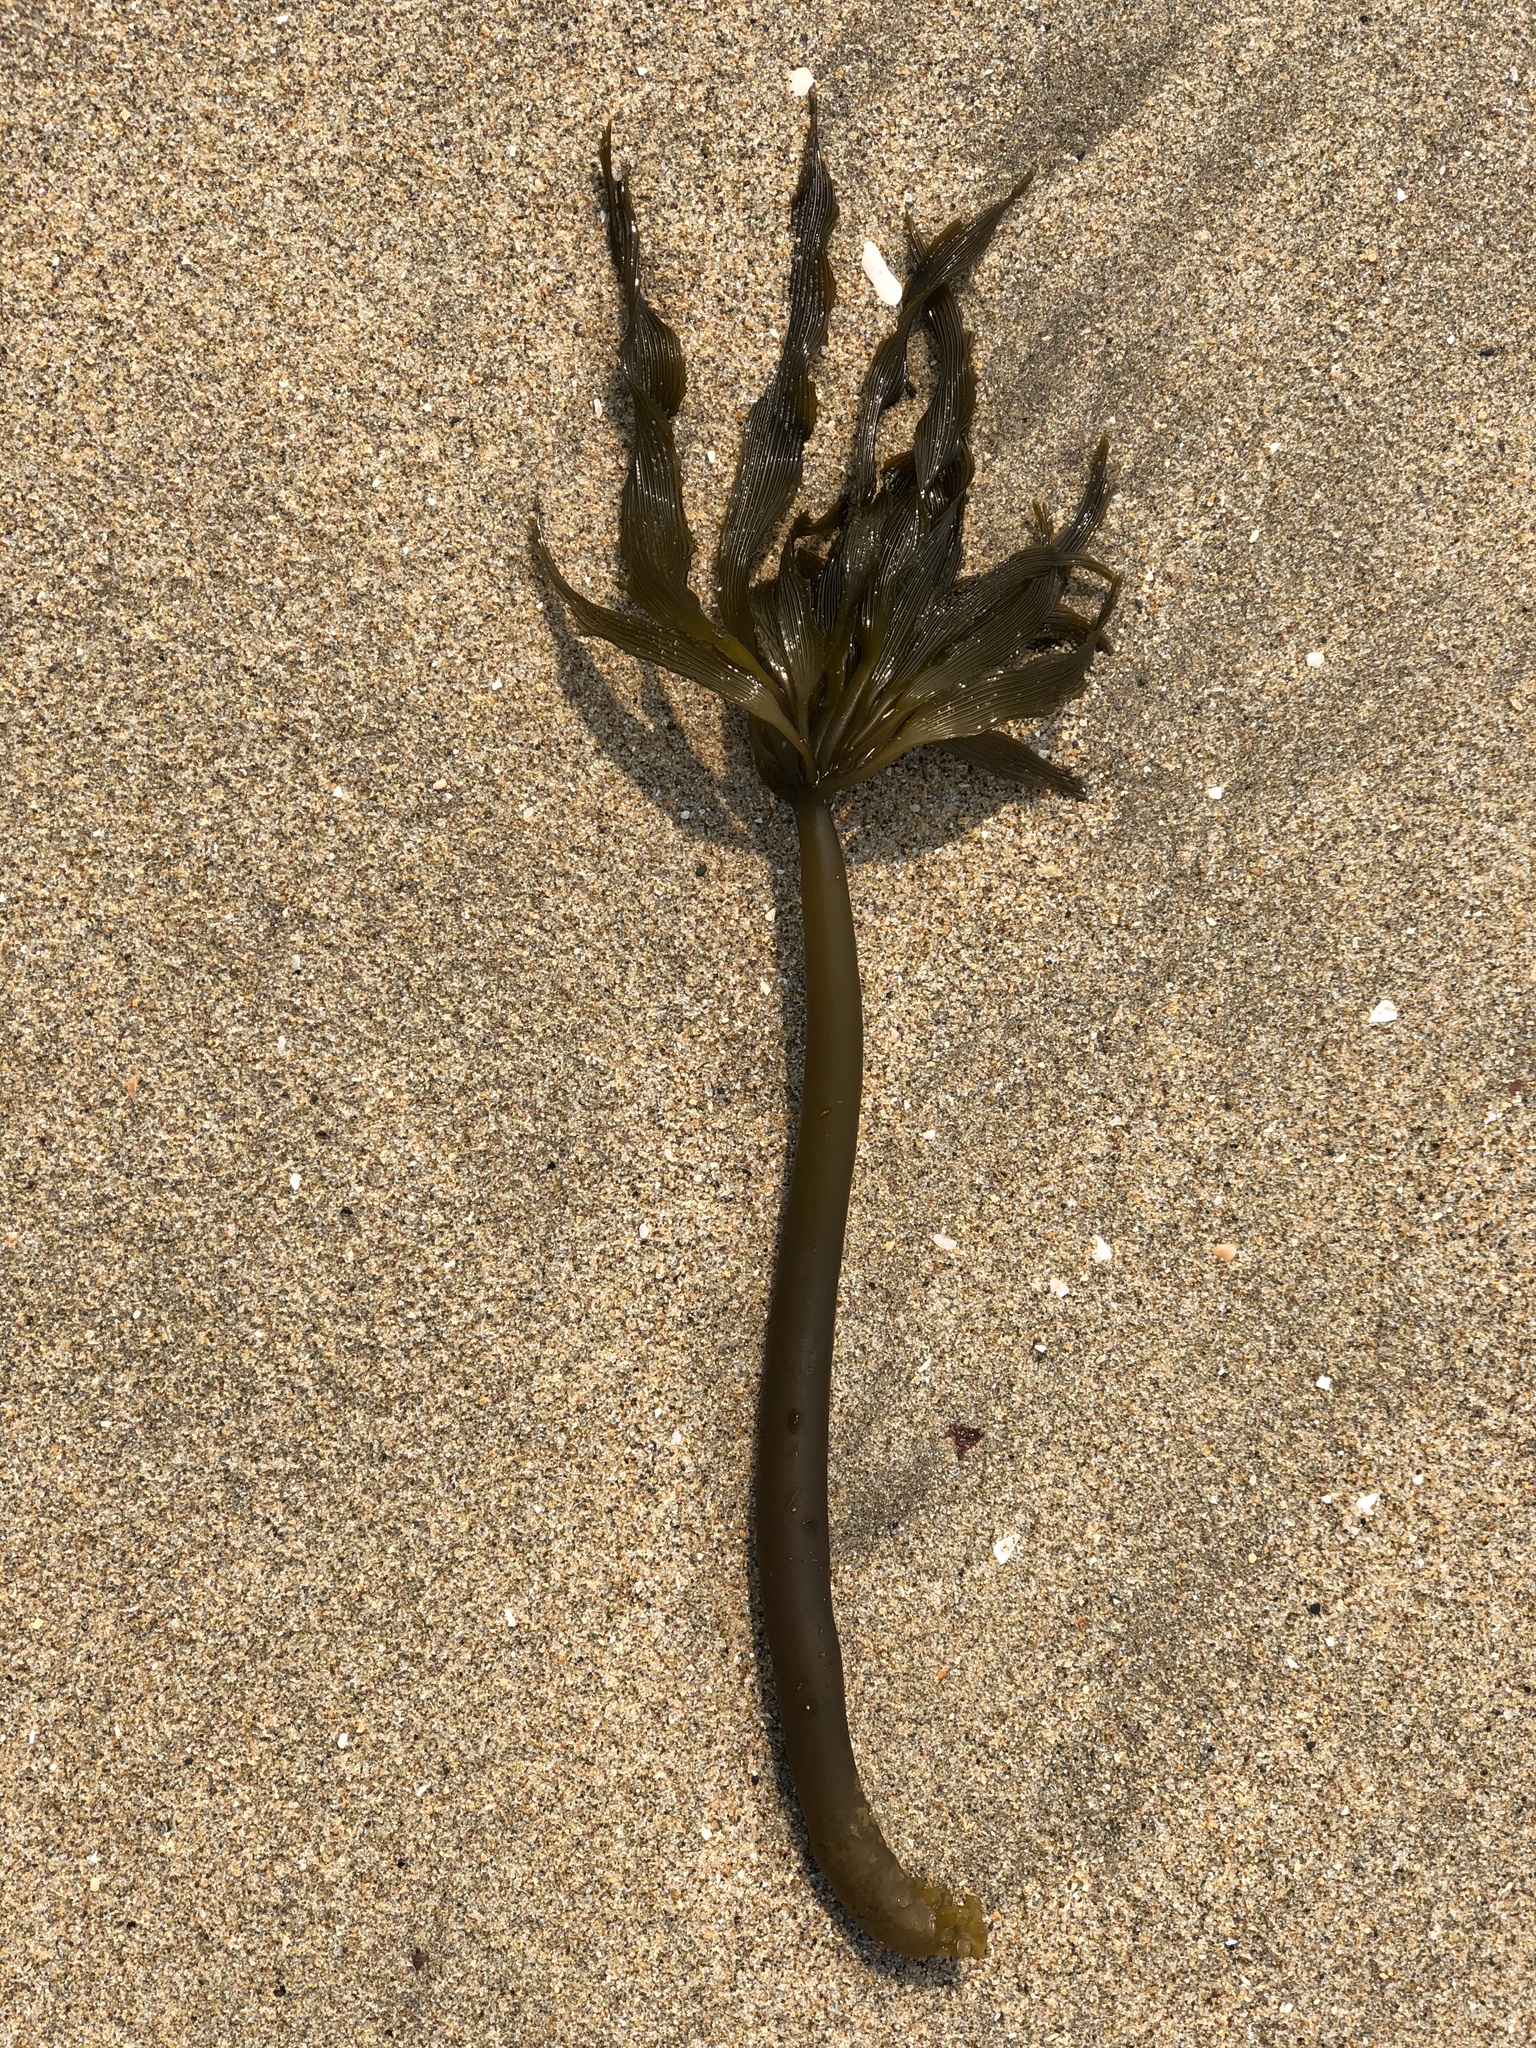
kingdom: Chromista
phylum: Ochrophyta
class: Phaeophyceae
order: Laminariales
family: Laminariaceae
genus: Postelsia
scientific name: Postelsia palmiformis
